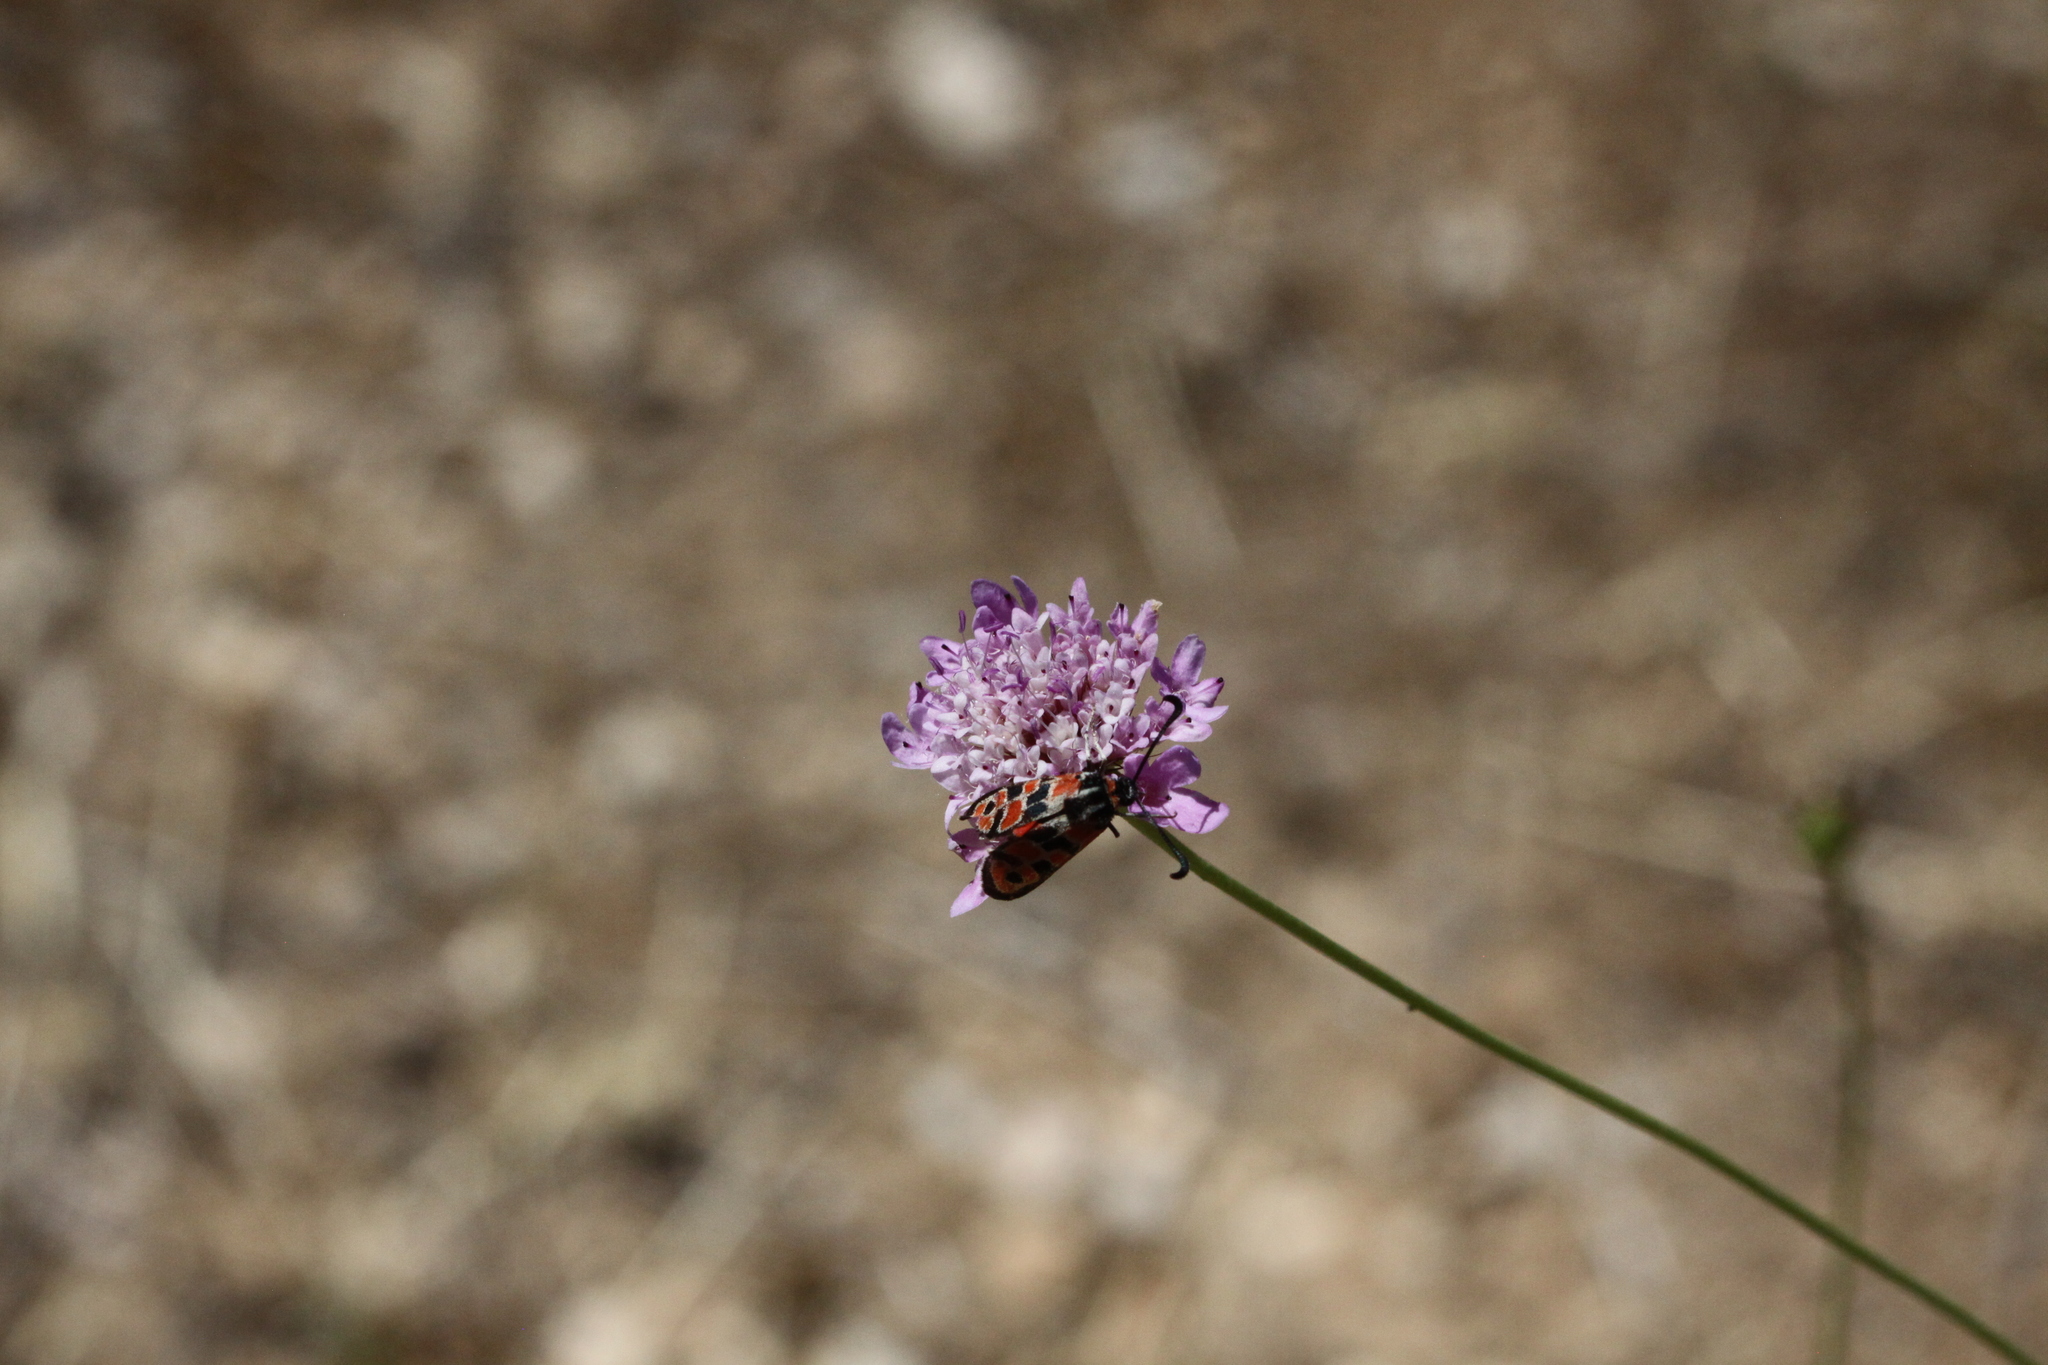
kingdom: Animalia
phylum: Arthropoda
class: Insecta
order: Lepidoptera
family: Zygaenidae
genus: Zygaena
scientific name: Zygaena fausta
